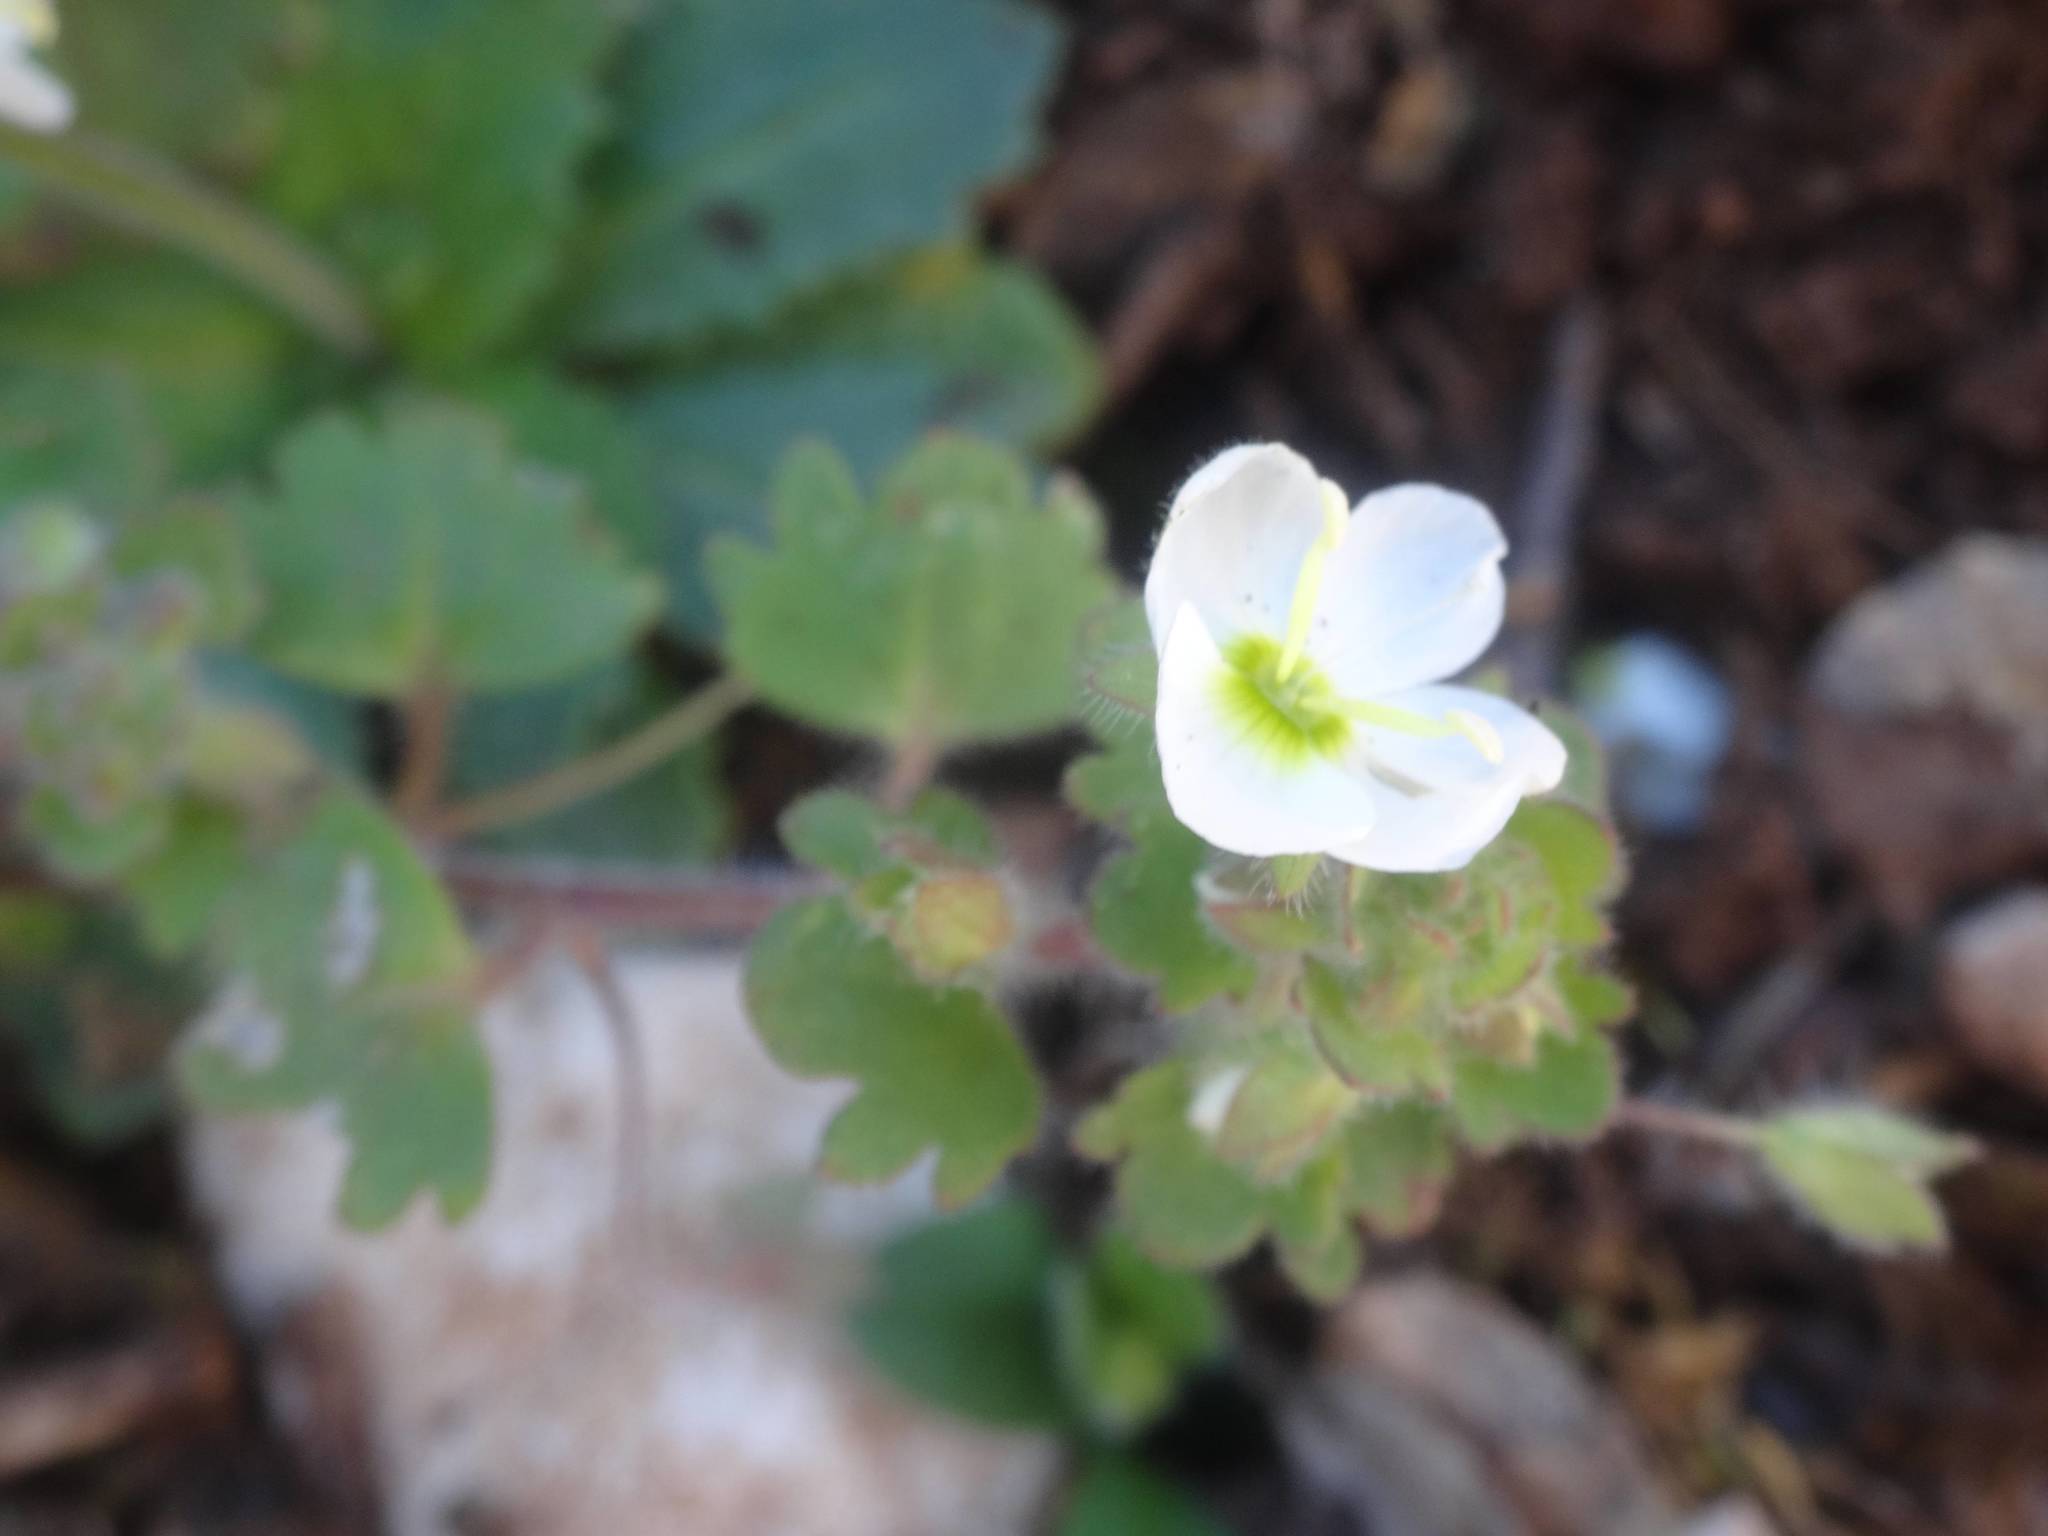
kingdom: Plantae
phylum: Tracheophyta
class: Magnoliopsida
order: Lamiales
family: Plantaginaceae
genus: Veronica
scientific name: Veronica cymbalaria
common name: Pale speedwell
